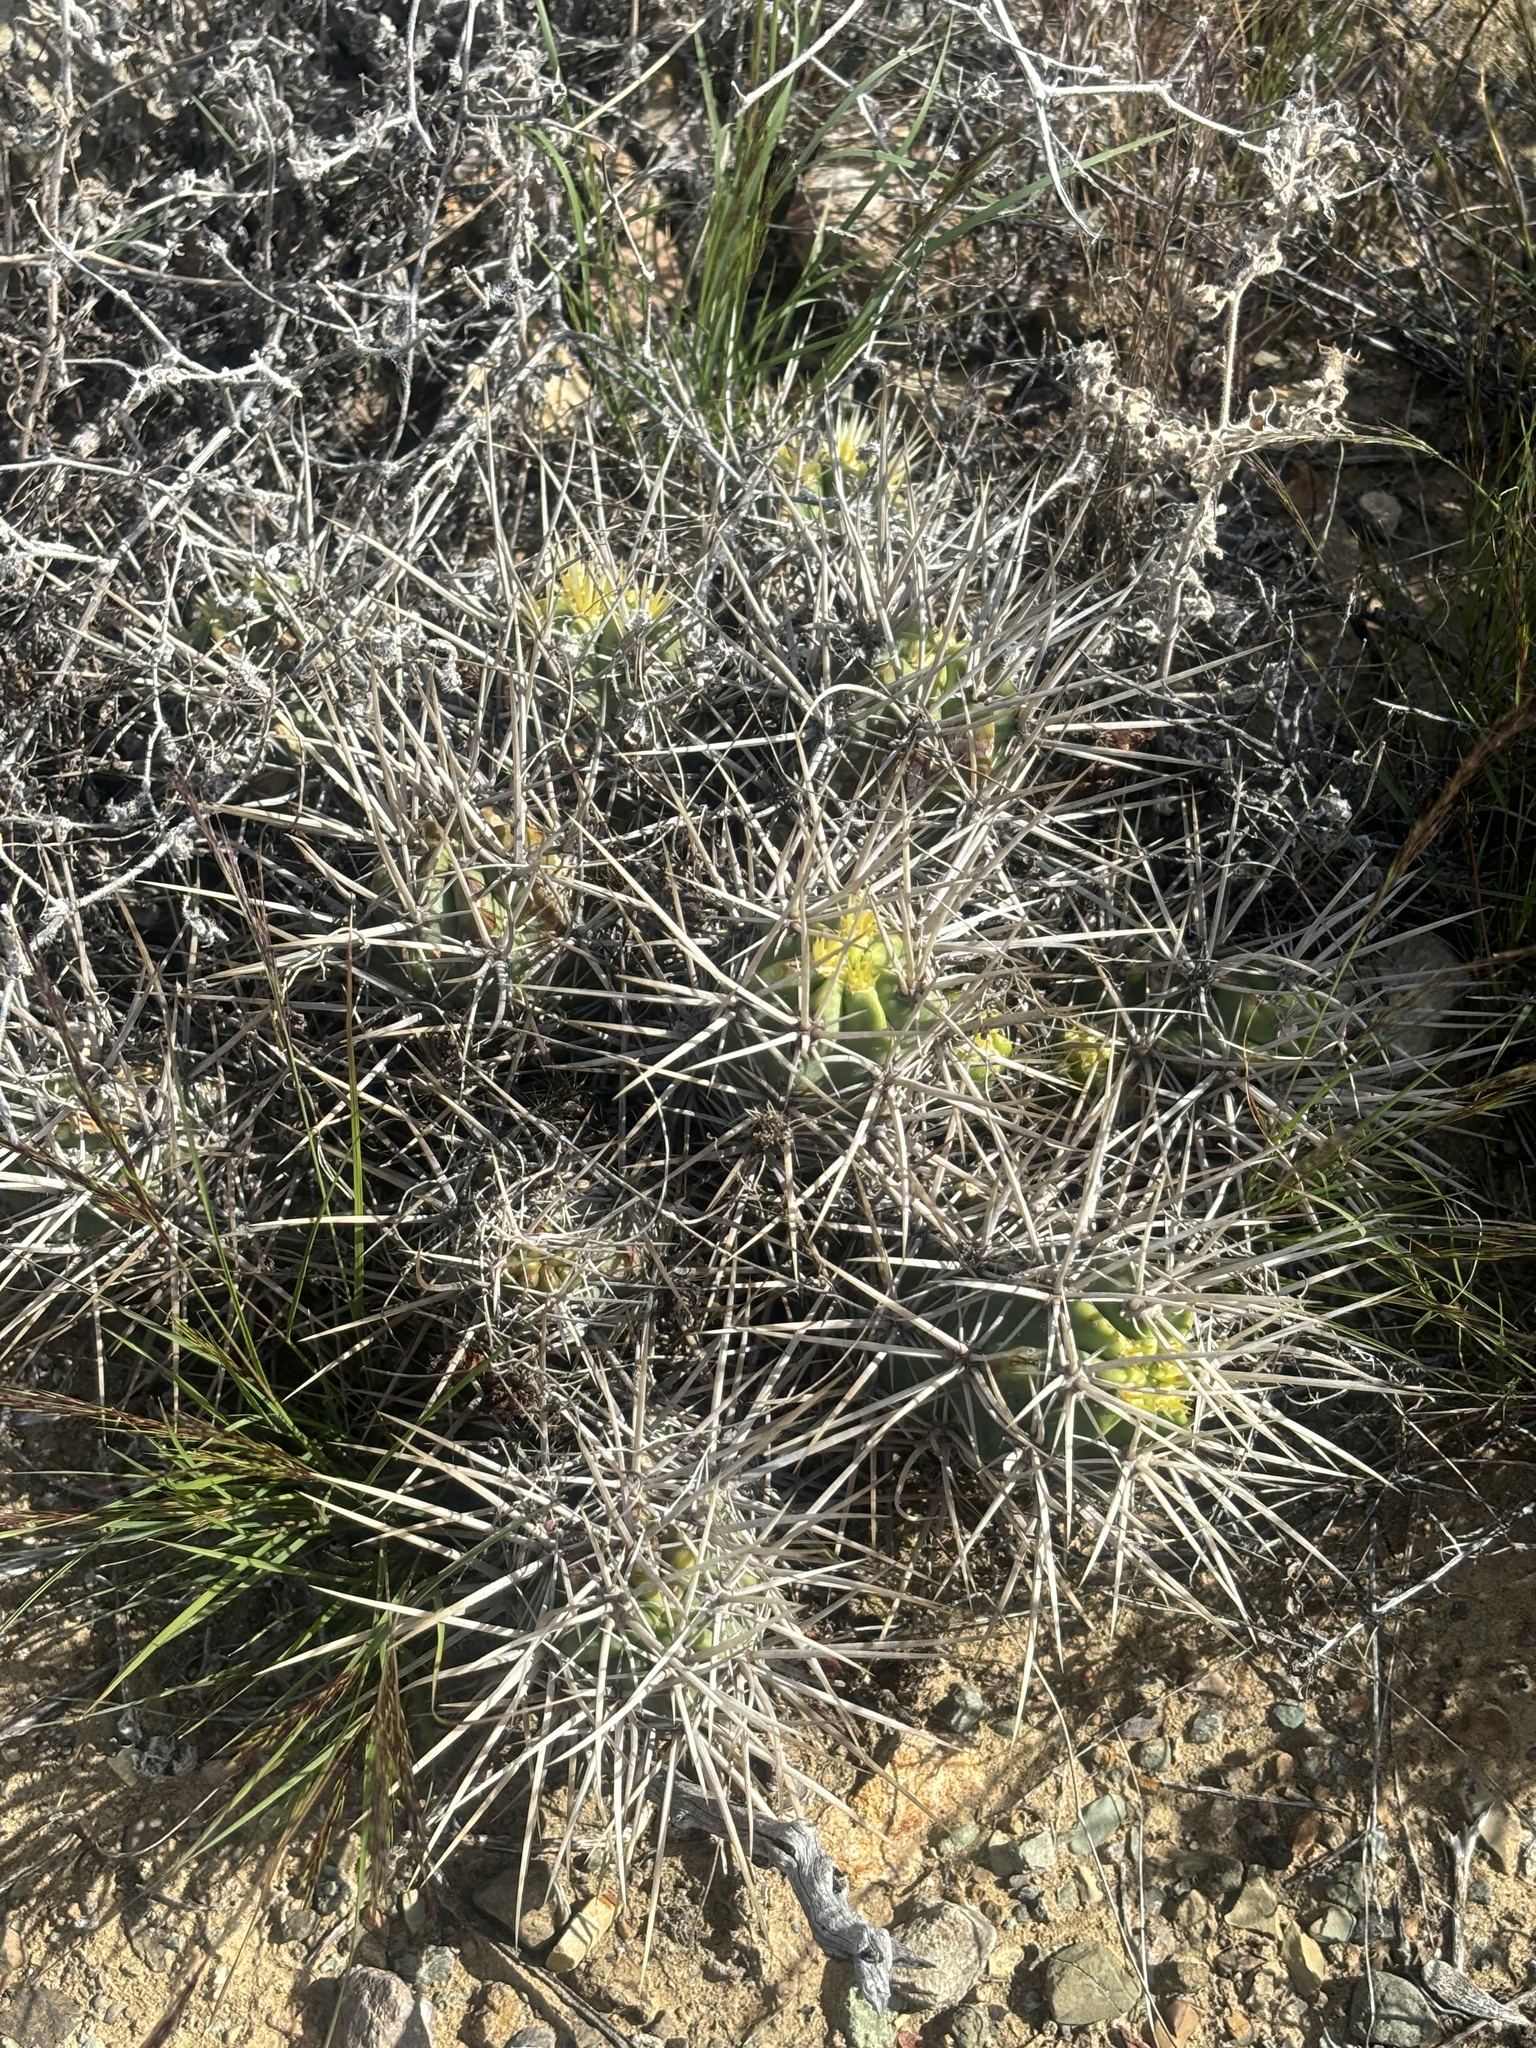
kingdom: Plantae
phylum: Tracheophyta
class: Magnoliopsida
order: Caryophyllales
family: Cactaceae
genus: Echinocereus
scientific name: Echinocereus maritimus
